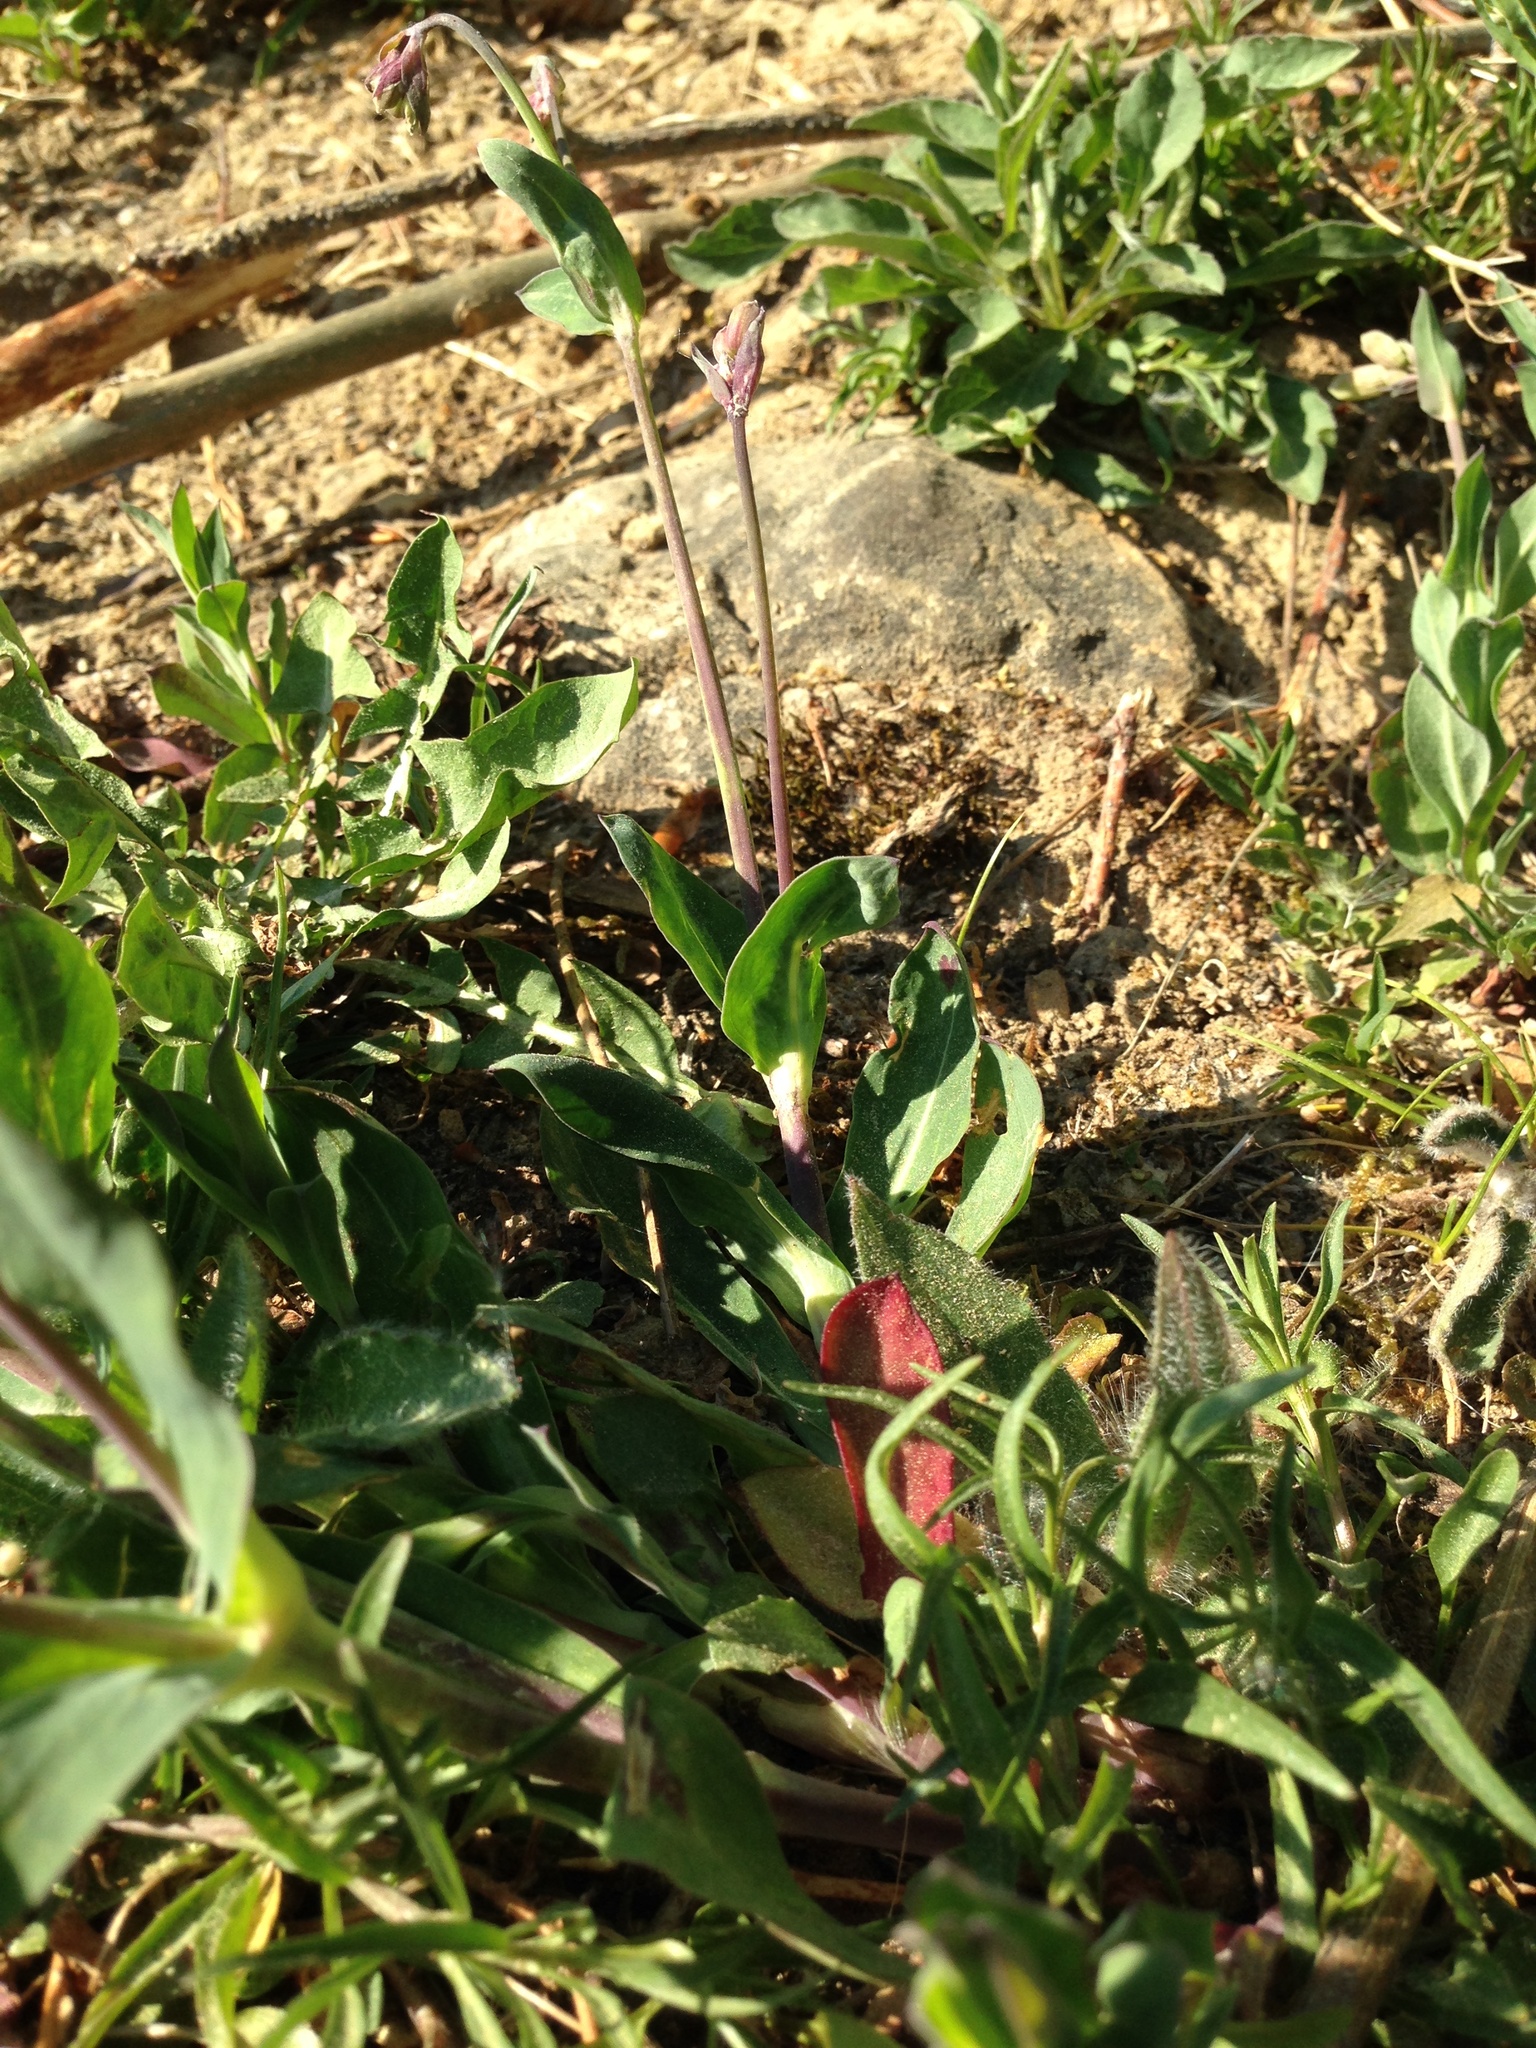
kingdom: Plantae
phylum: Tracheophyta
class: Magnoliopsida
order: Caryophyllales
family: Caryophyllaceae
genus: Silene
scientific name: Silene vulgaris
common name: Bladder campion
